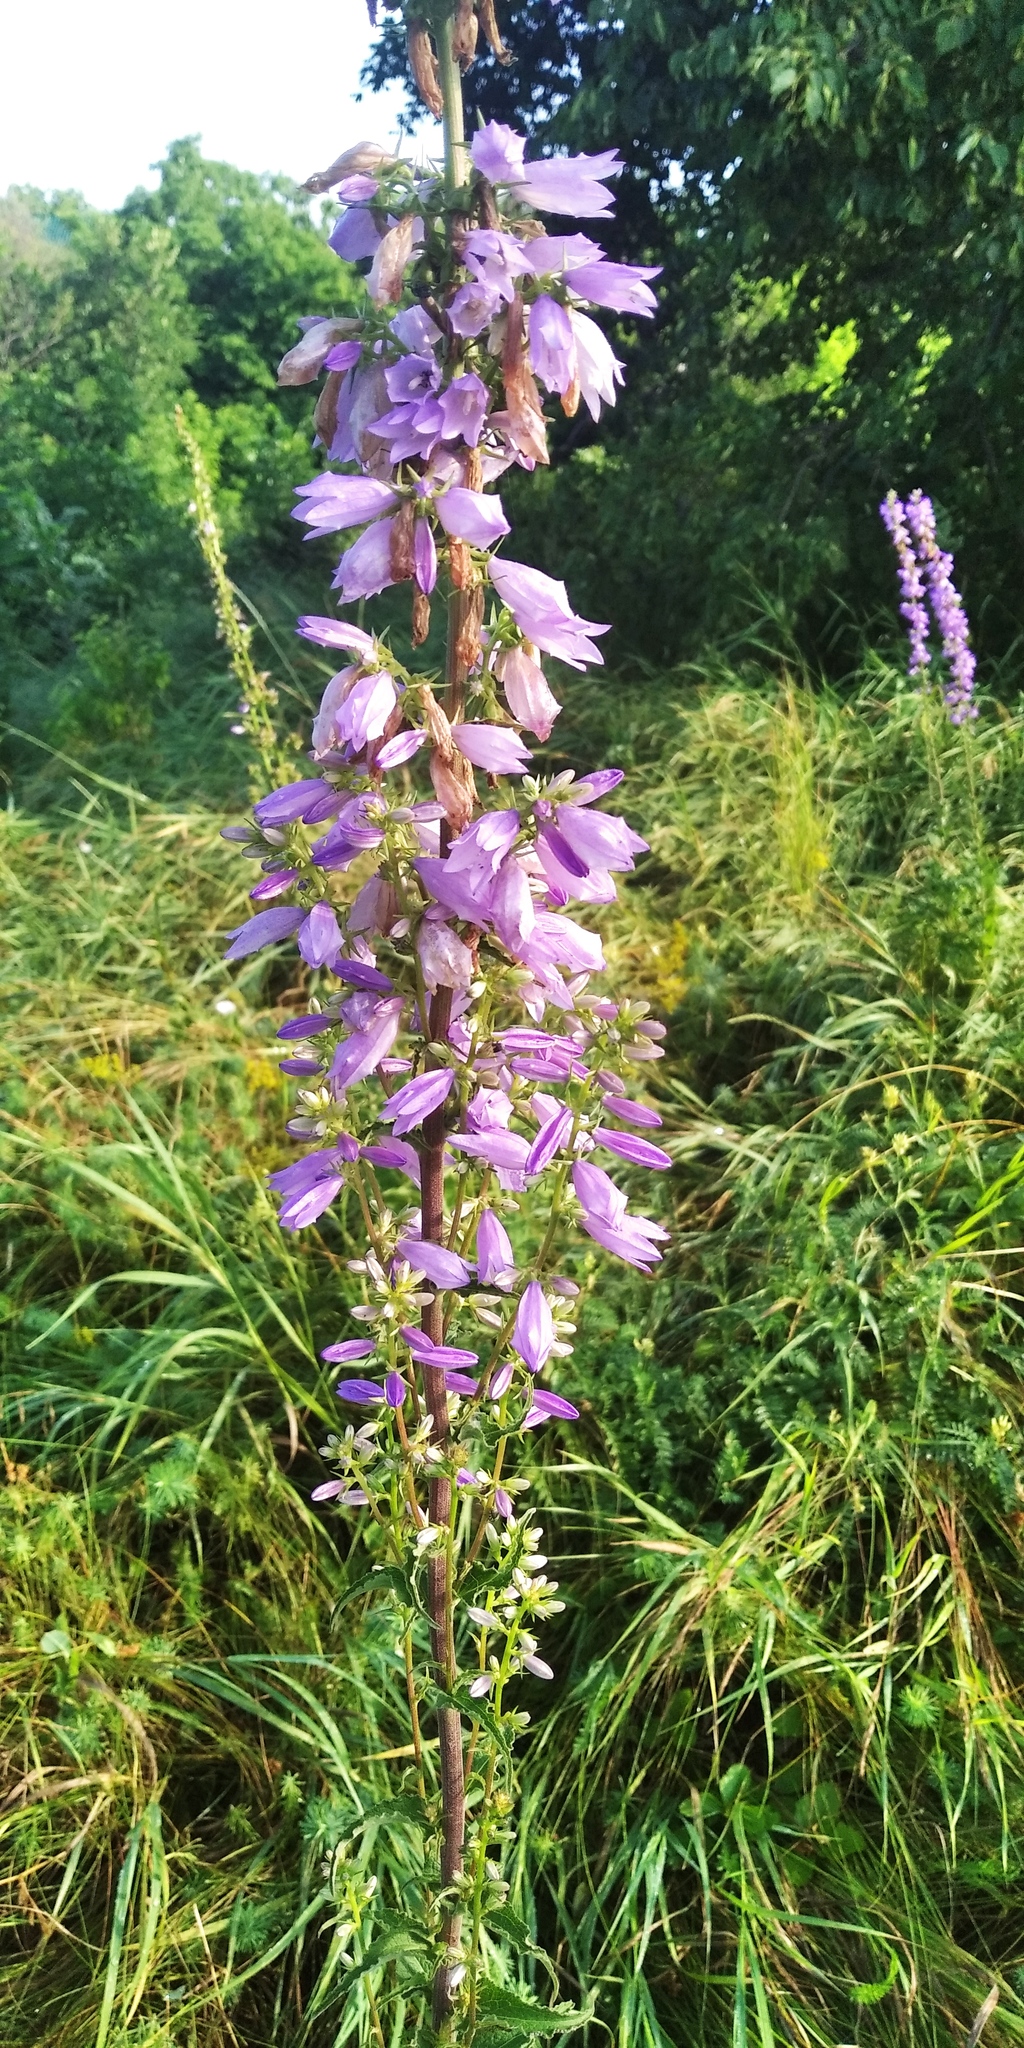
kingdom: Plantae
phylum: Tracheophyta
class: Magnoliopsida
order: Asterales
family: Campanulaceae
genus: Campanula
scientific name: Campanula sibirica
